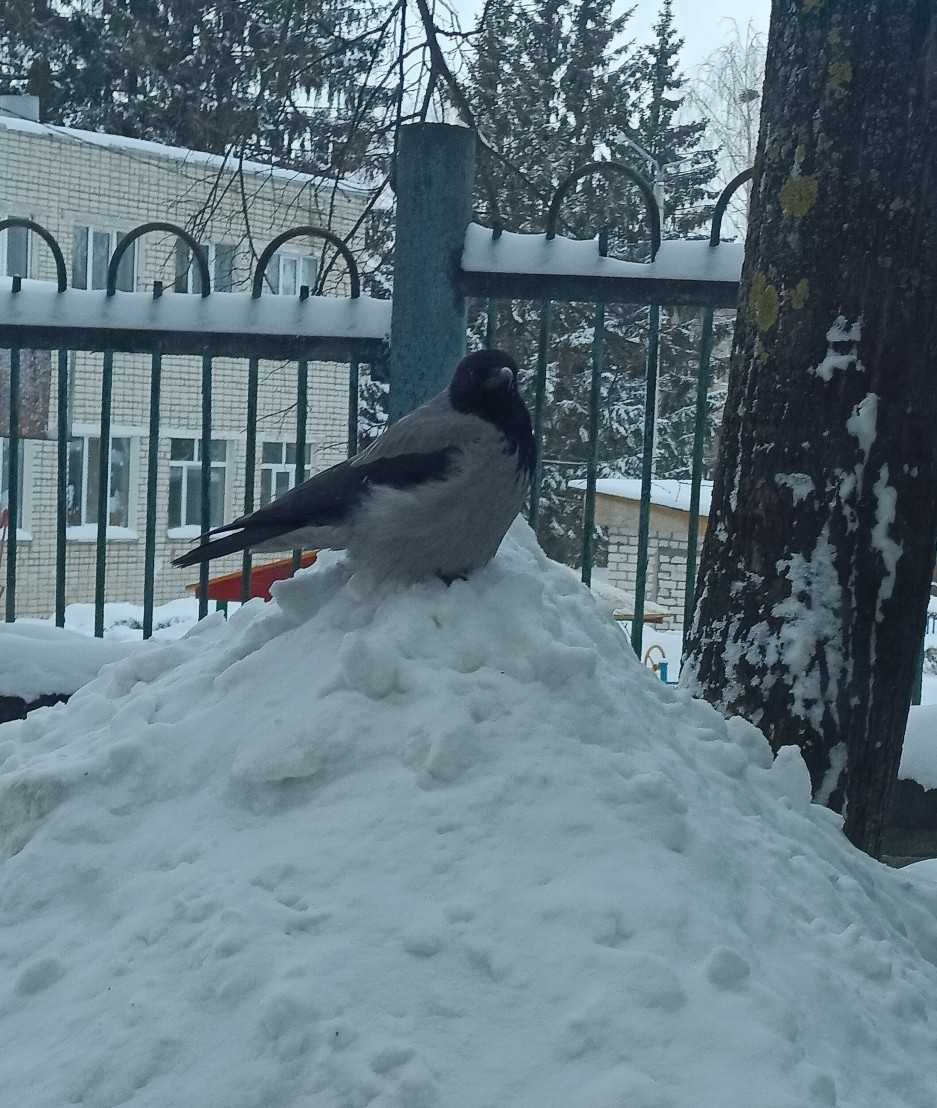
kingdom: Animalia
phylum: Chordata
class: Aves
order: Passeriformes
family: Corvidae
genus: Corvus
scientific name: Corvus cornix
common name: Hooded crow
